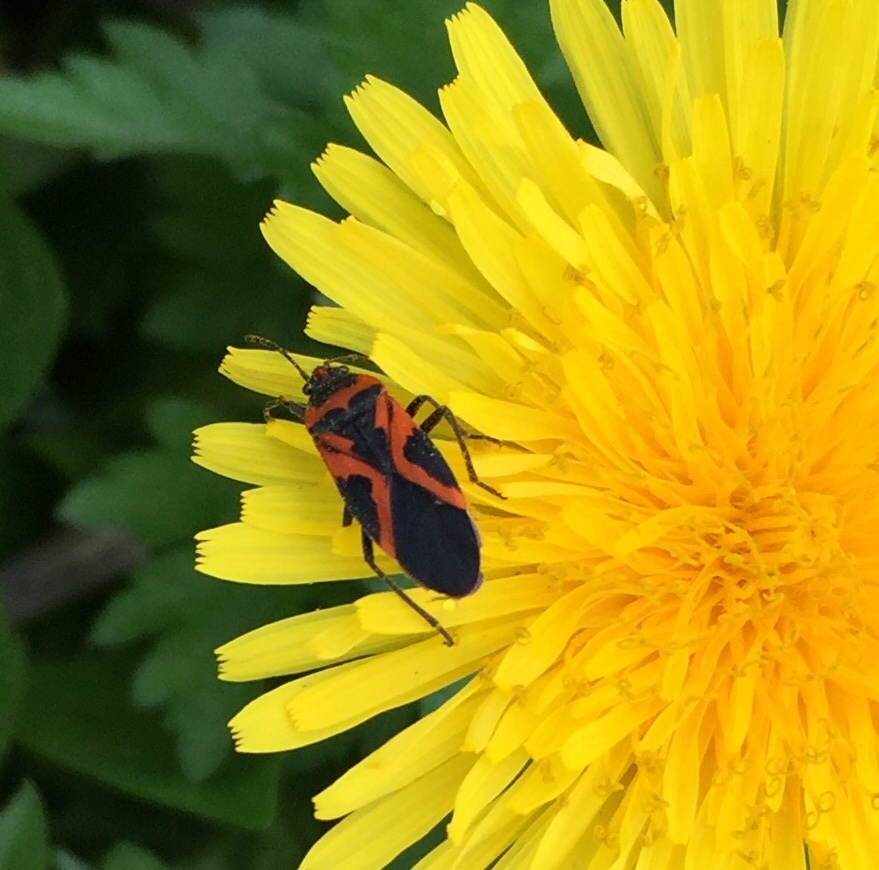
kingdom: Animalia
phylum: Arthropoda
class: Insecta
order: Hemiptera
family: Lygaeidae
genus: Lygaeus
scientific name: Lygaeus turcicus
